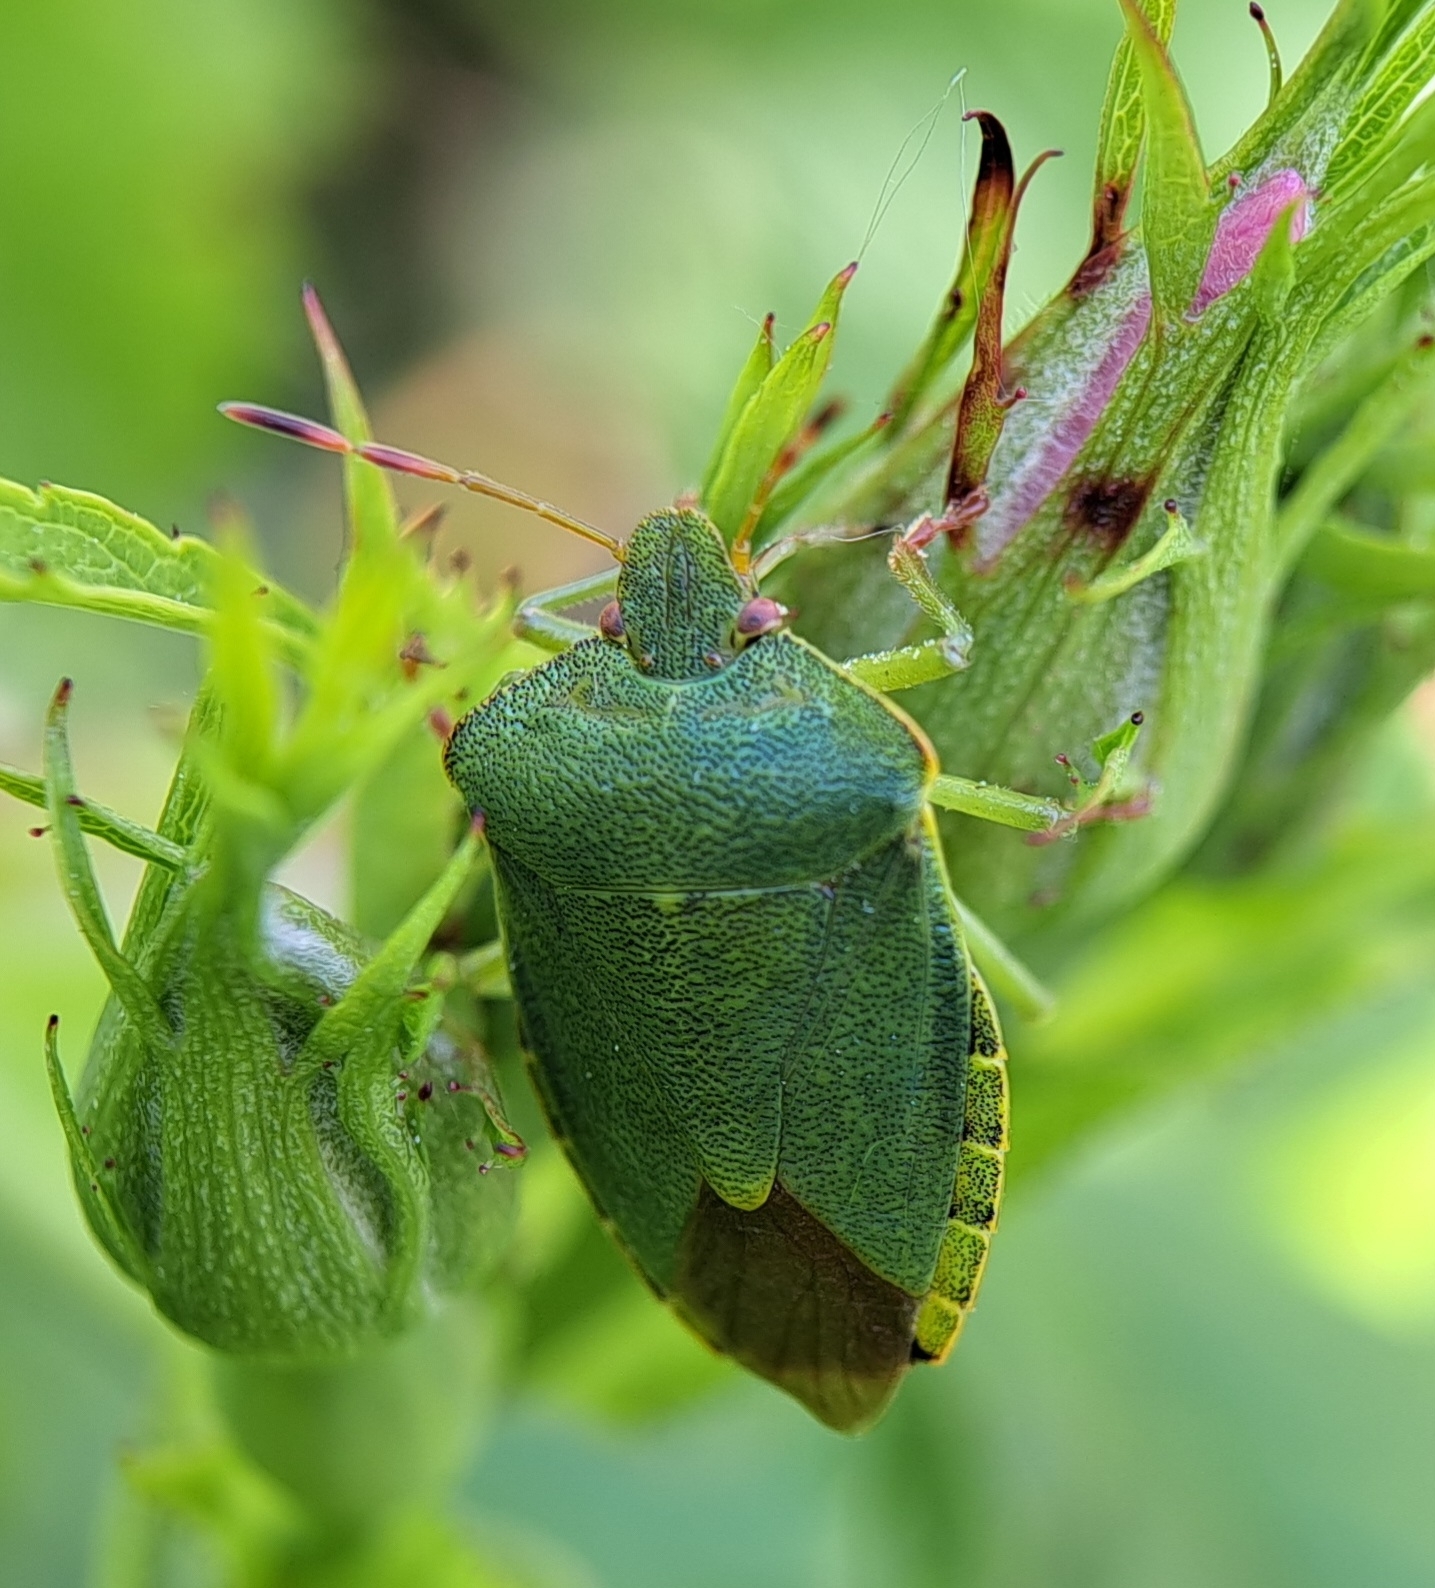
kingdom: Animalia
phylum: Arthropoda
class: Insecta
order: Hemiptera
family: Pentatomidae
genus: Palomena
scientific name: Palomena prasina
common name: Green shieldbug
